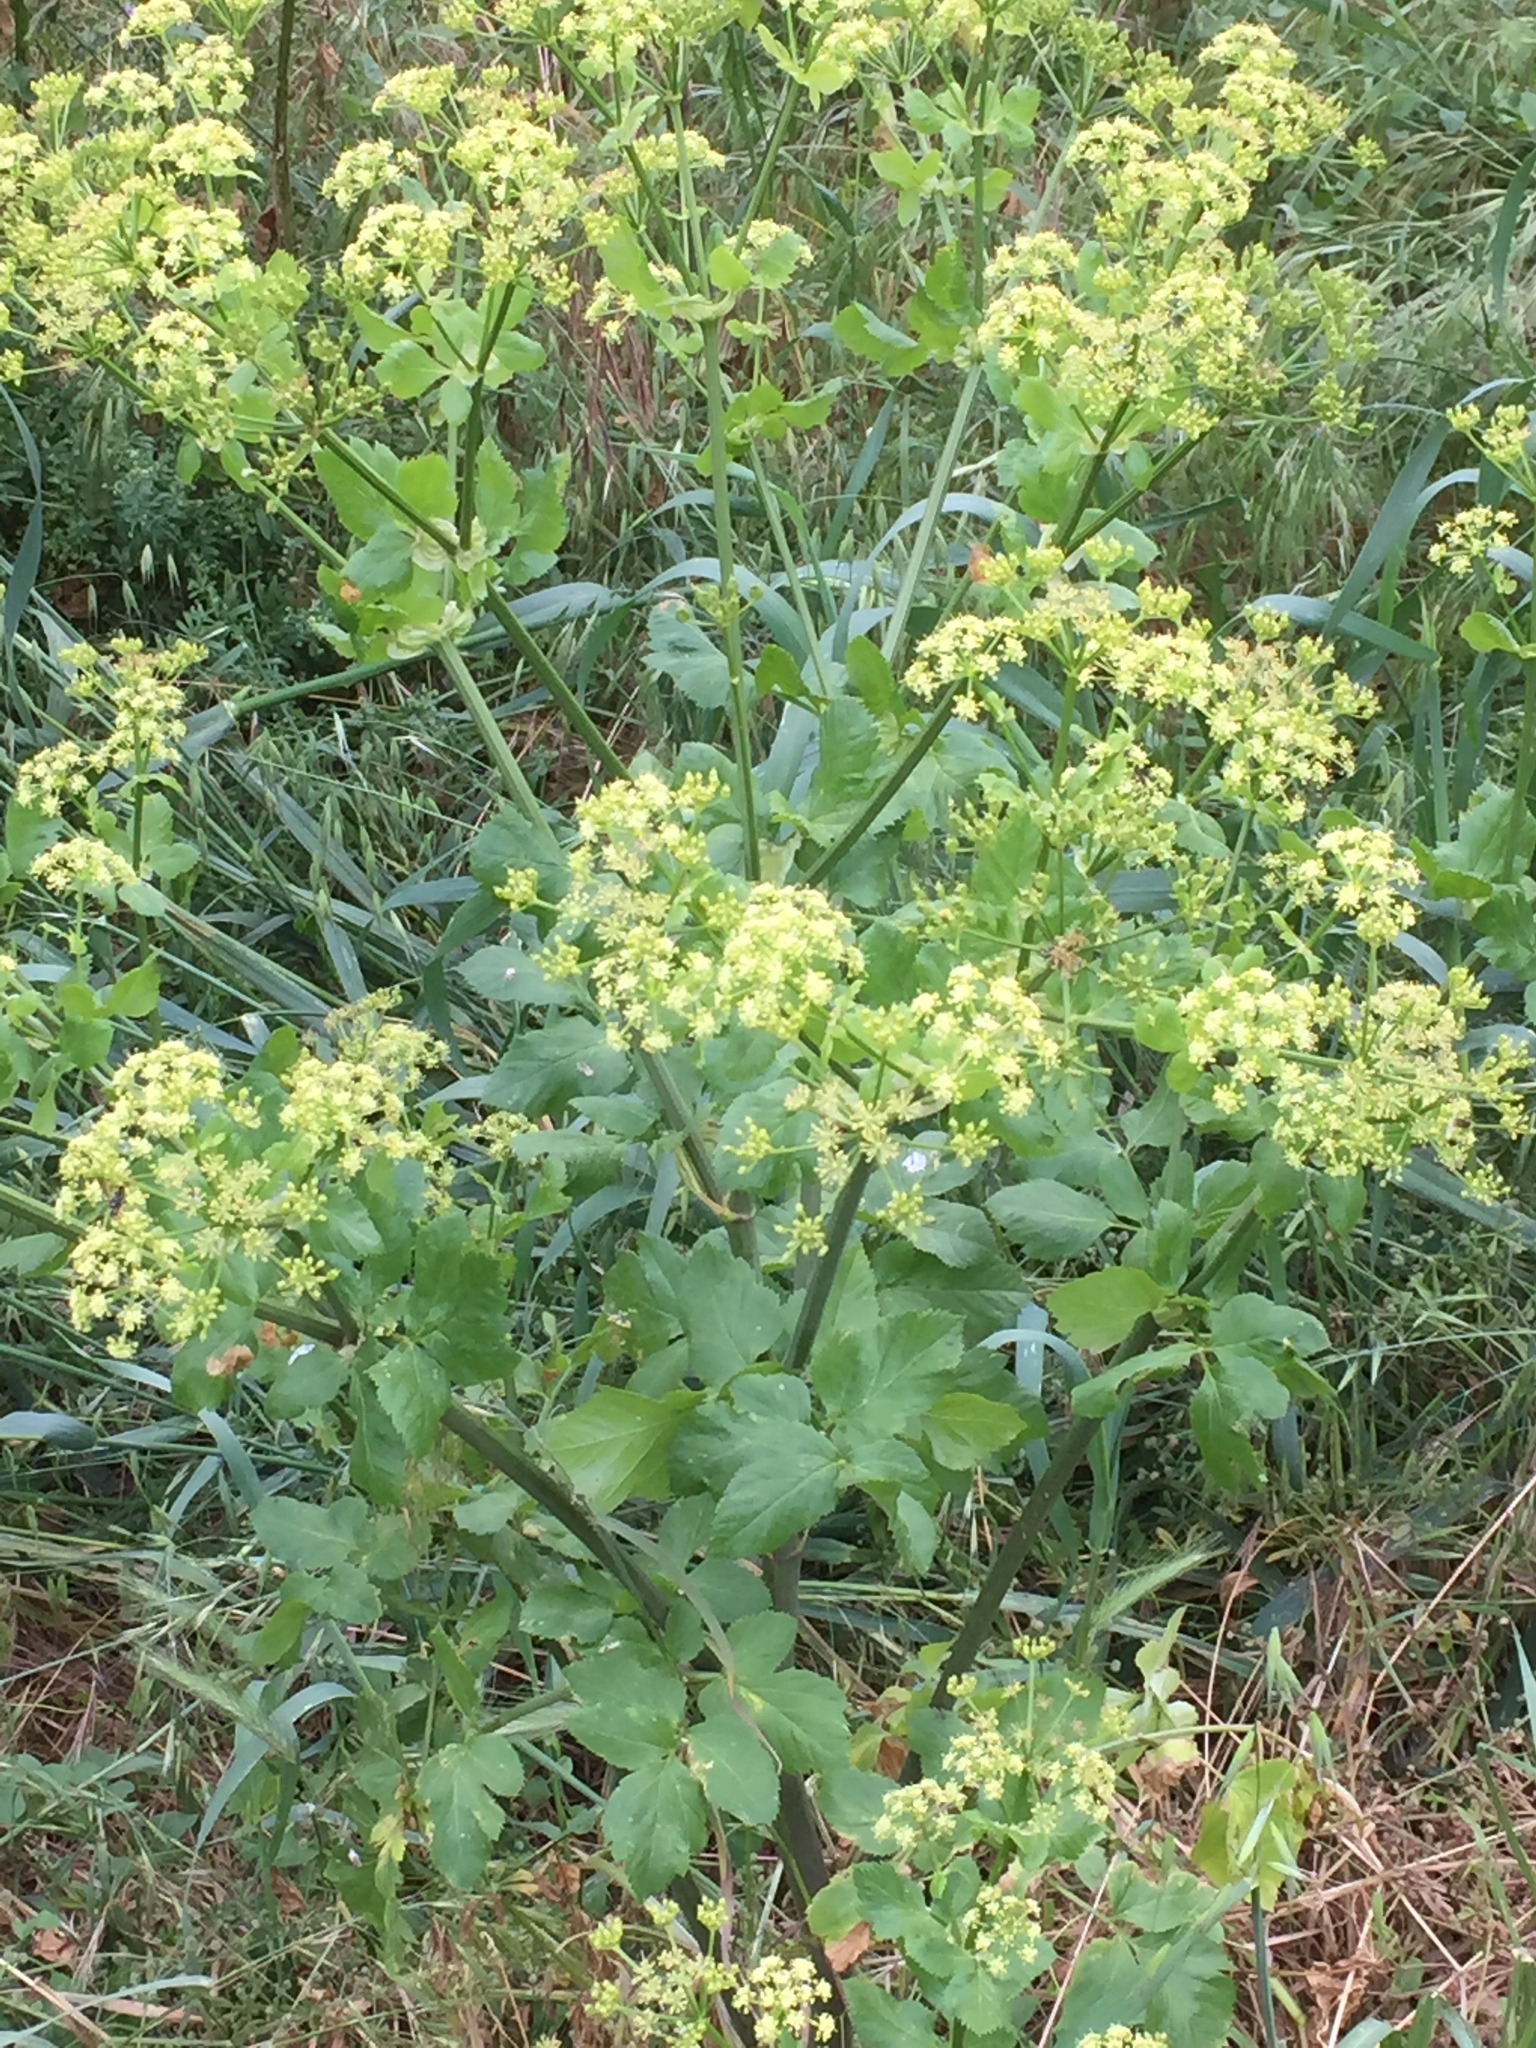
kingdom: Plantae
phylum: Tracheophyta
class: Magnoliopsida
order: Apiales
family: Apiaceae
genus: Smyrnium
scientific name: Smyrnium olusatrum
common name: Alexanders
